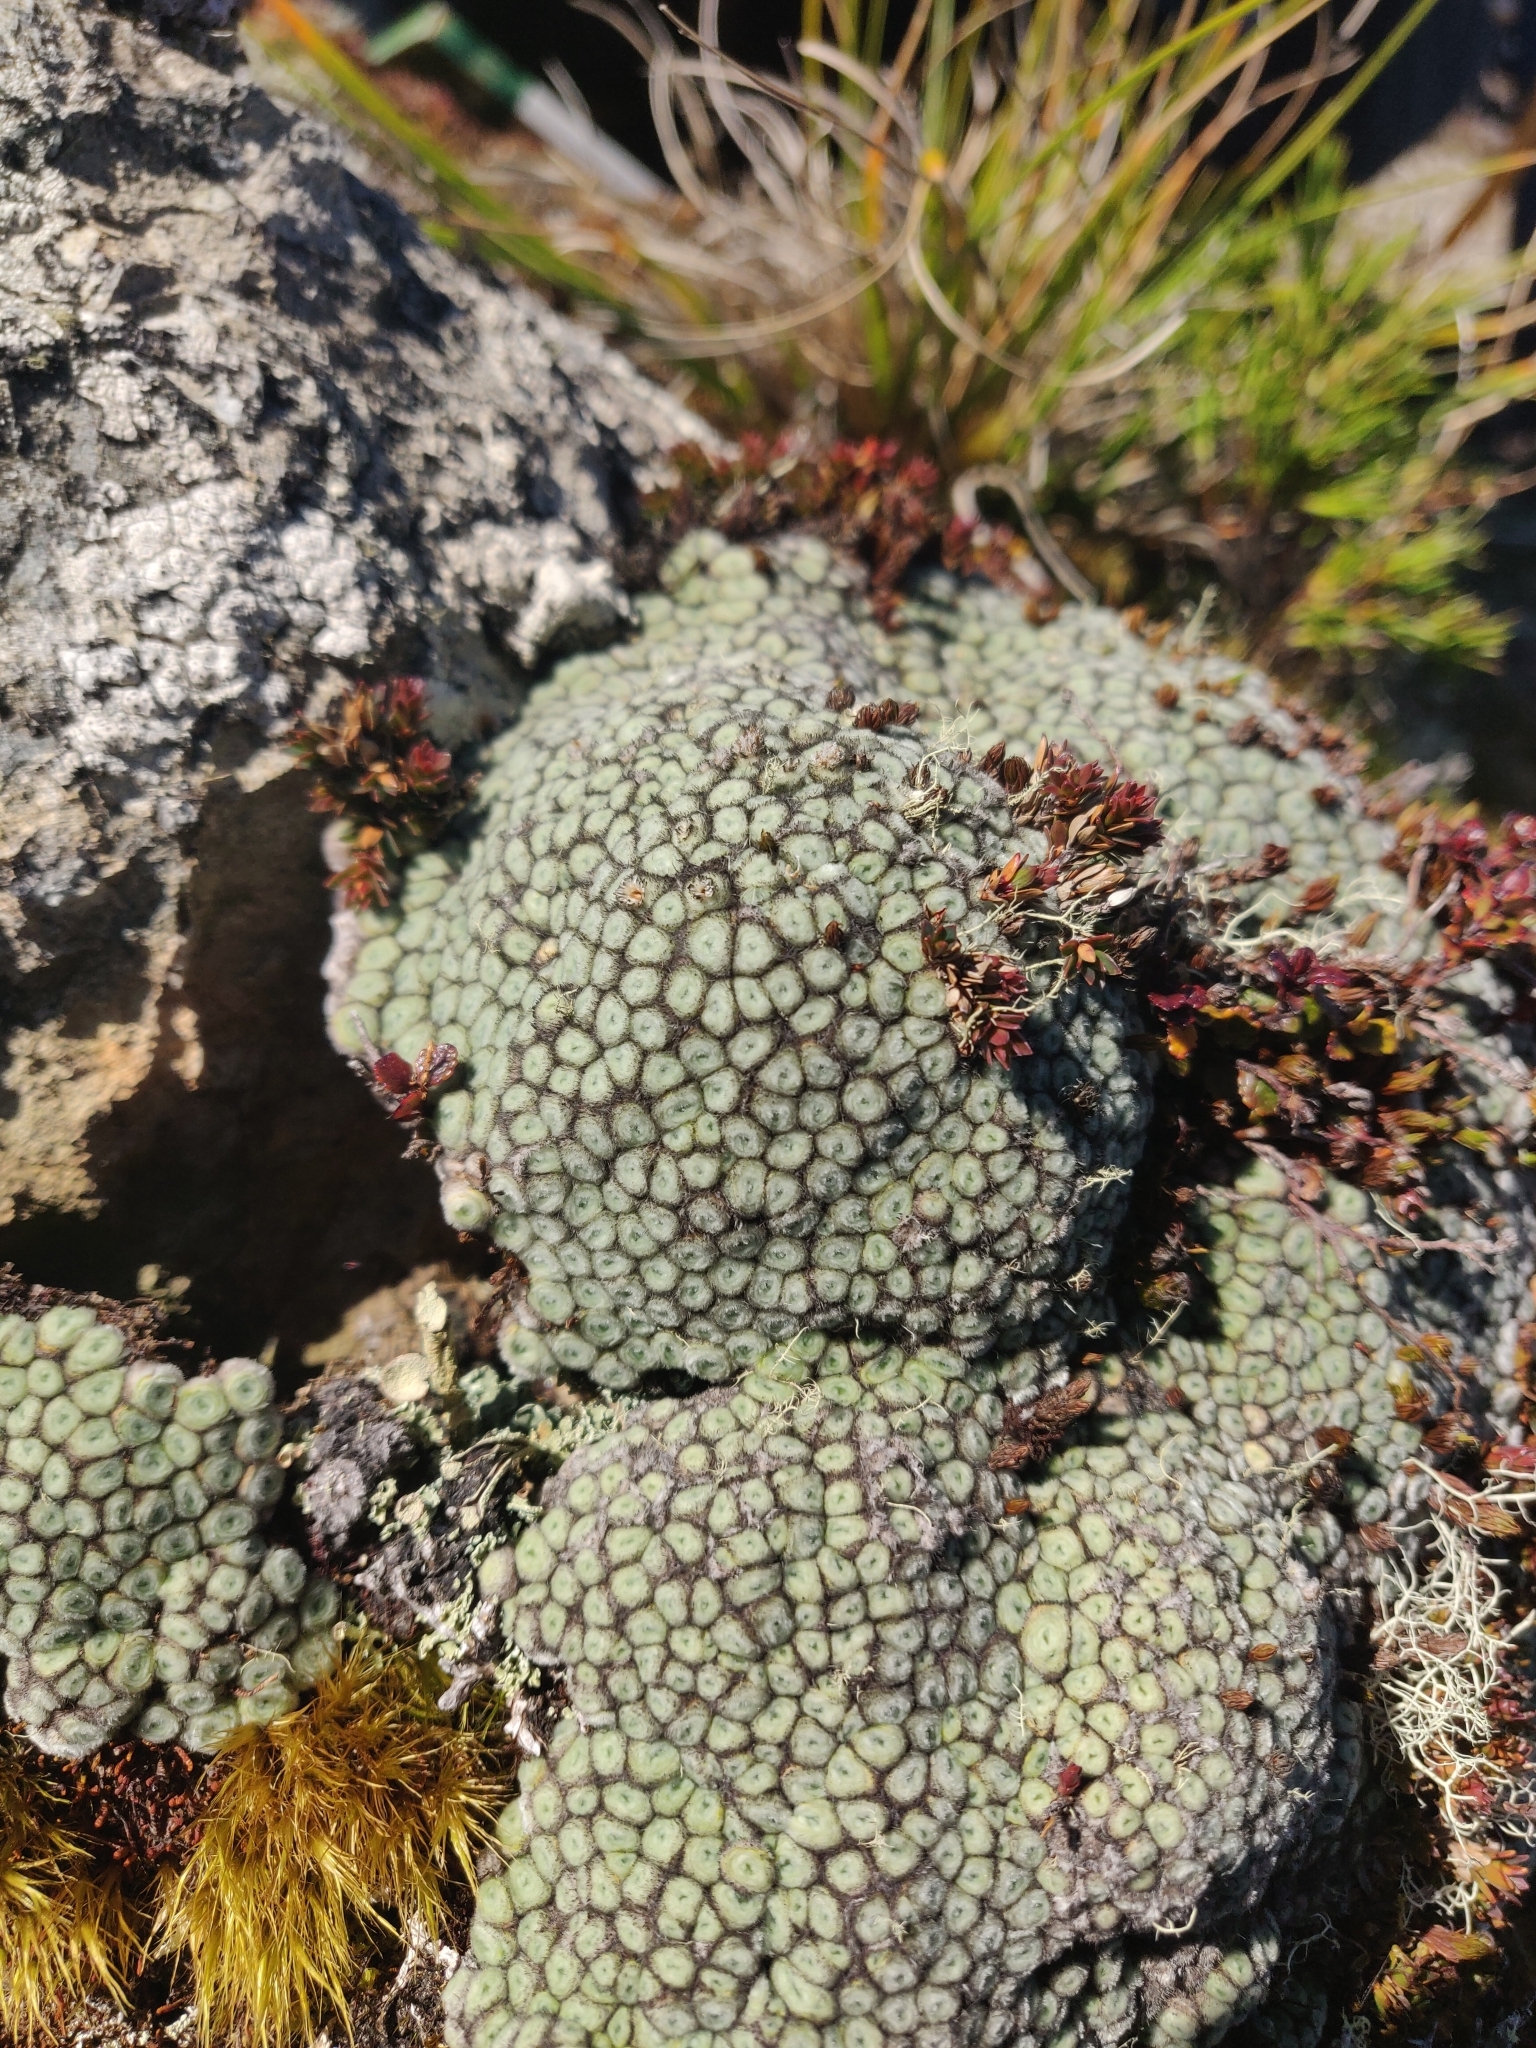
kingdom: Plantae
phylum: Tracheophyta
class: Magnoliopsida
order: Asterales
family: Asteraceae
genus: Raoulia
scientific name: Raoulia rubra
